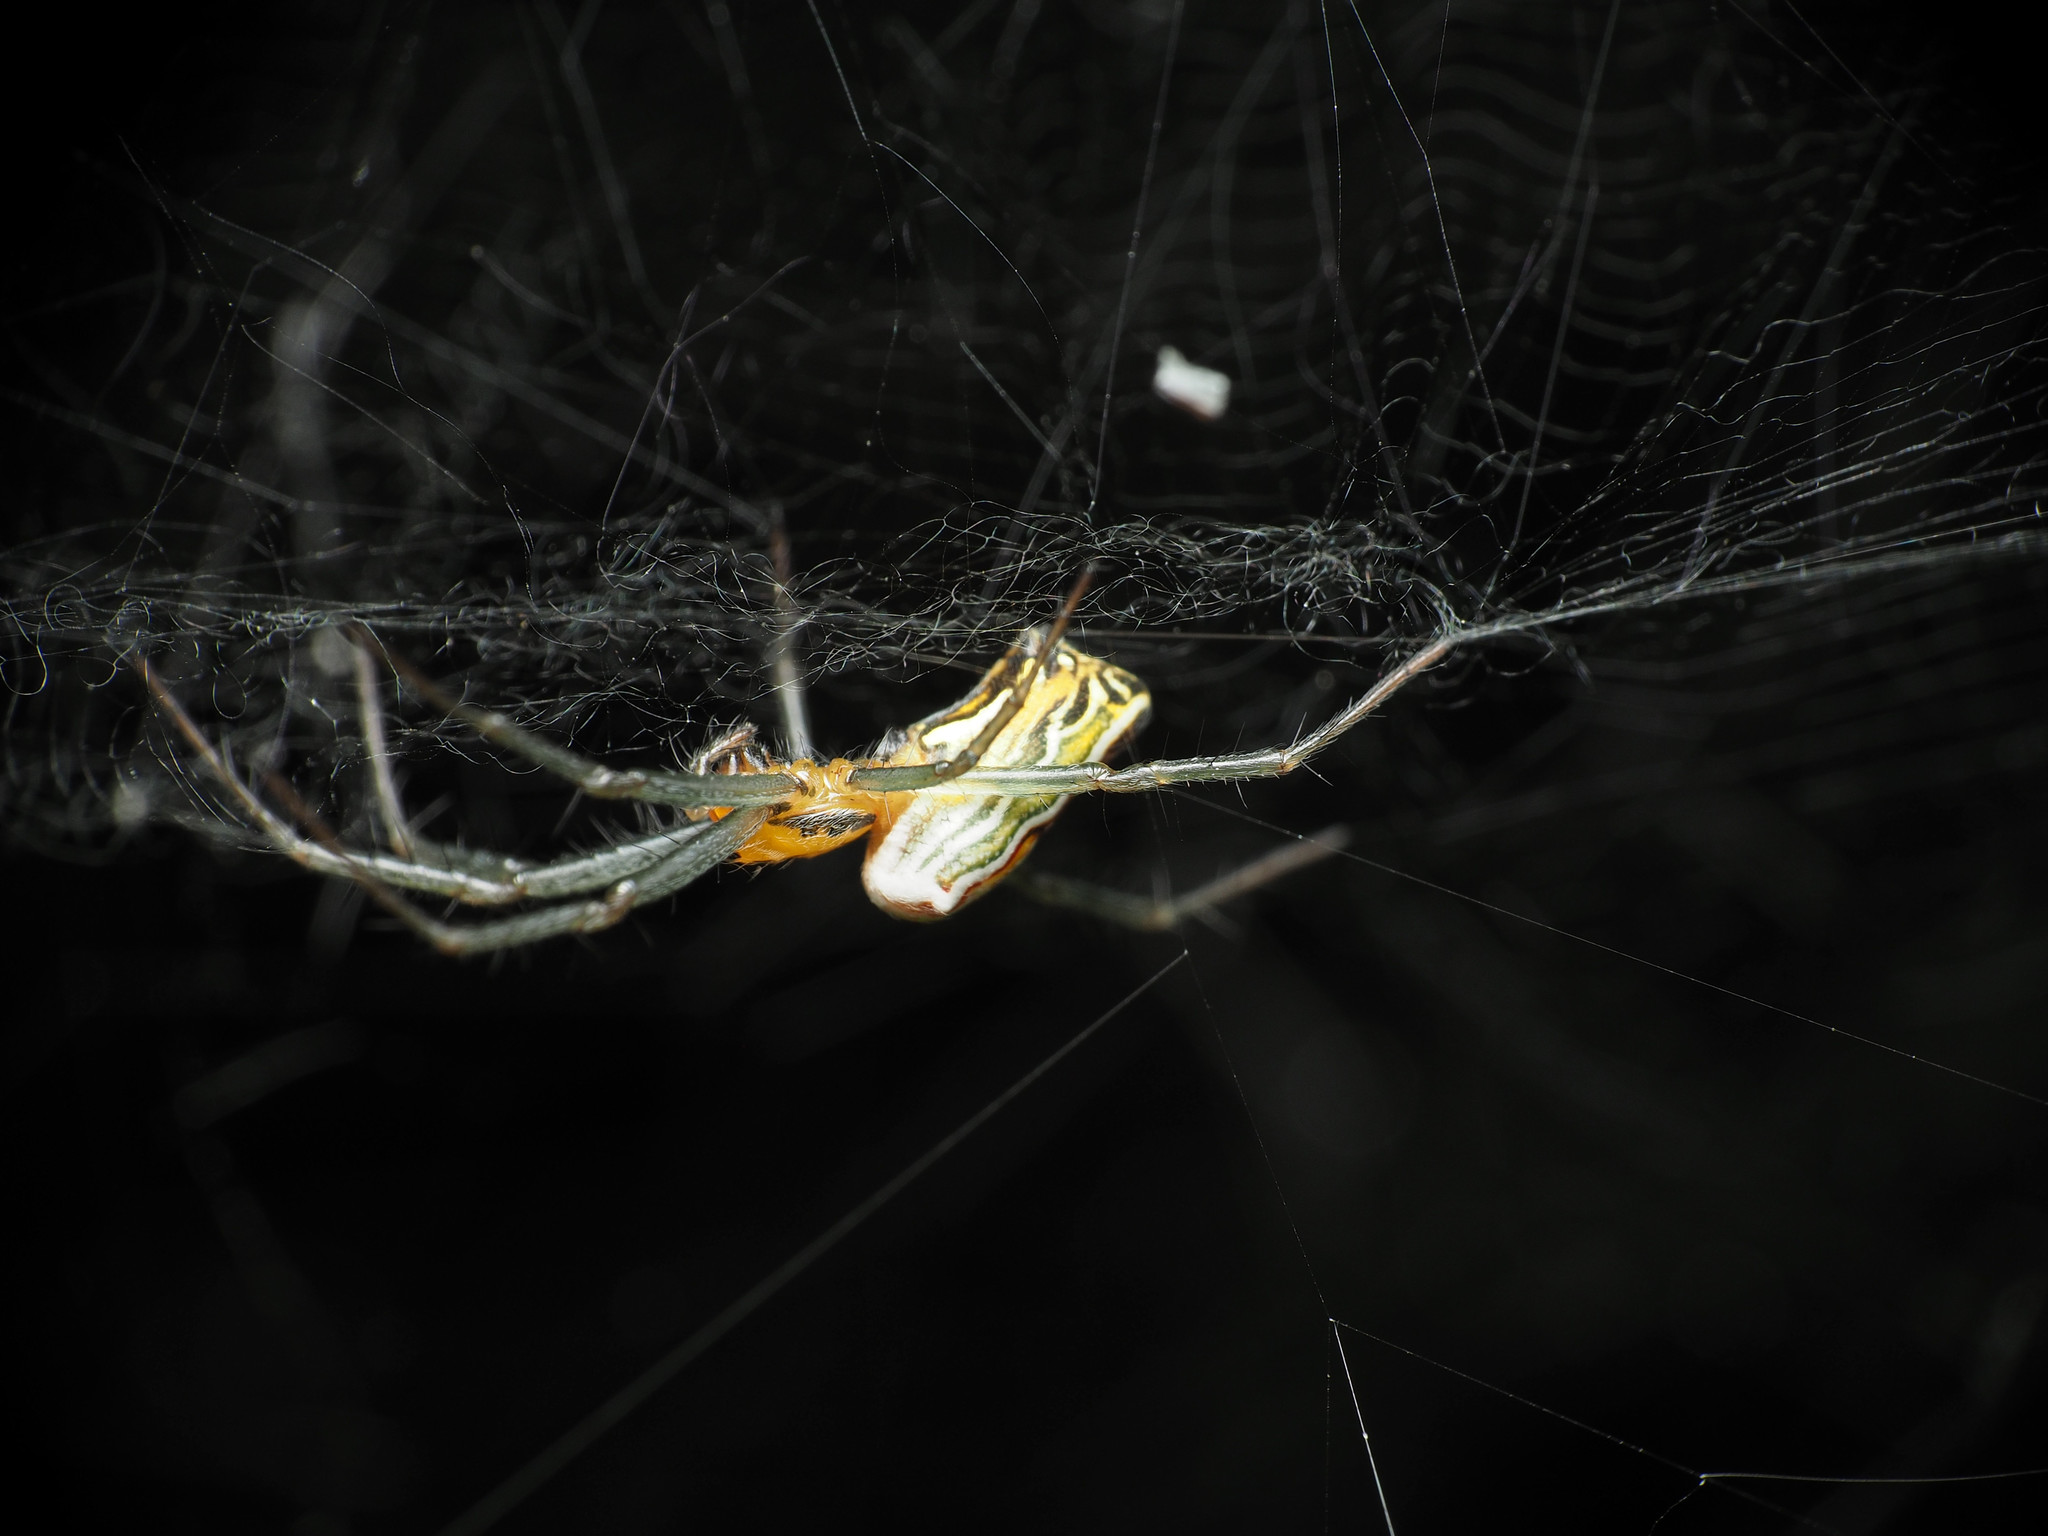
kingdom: Animalia
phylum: Arthropoda
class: Arachnida
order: Araneae
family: Araneidae
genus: Mecynogea
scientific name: Mecynogea lemniscata
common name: Orb weavers
